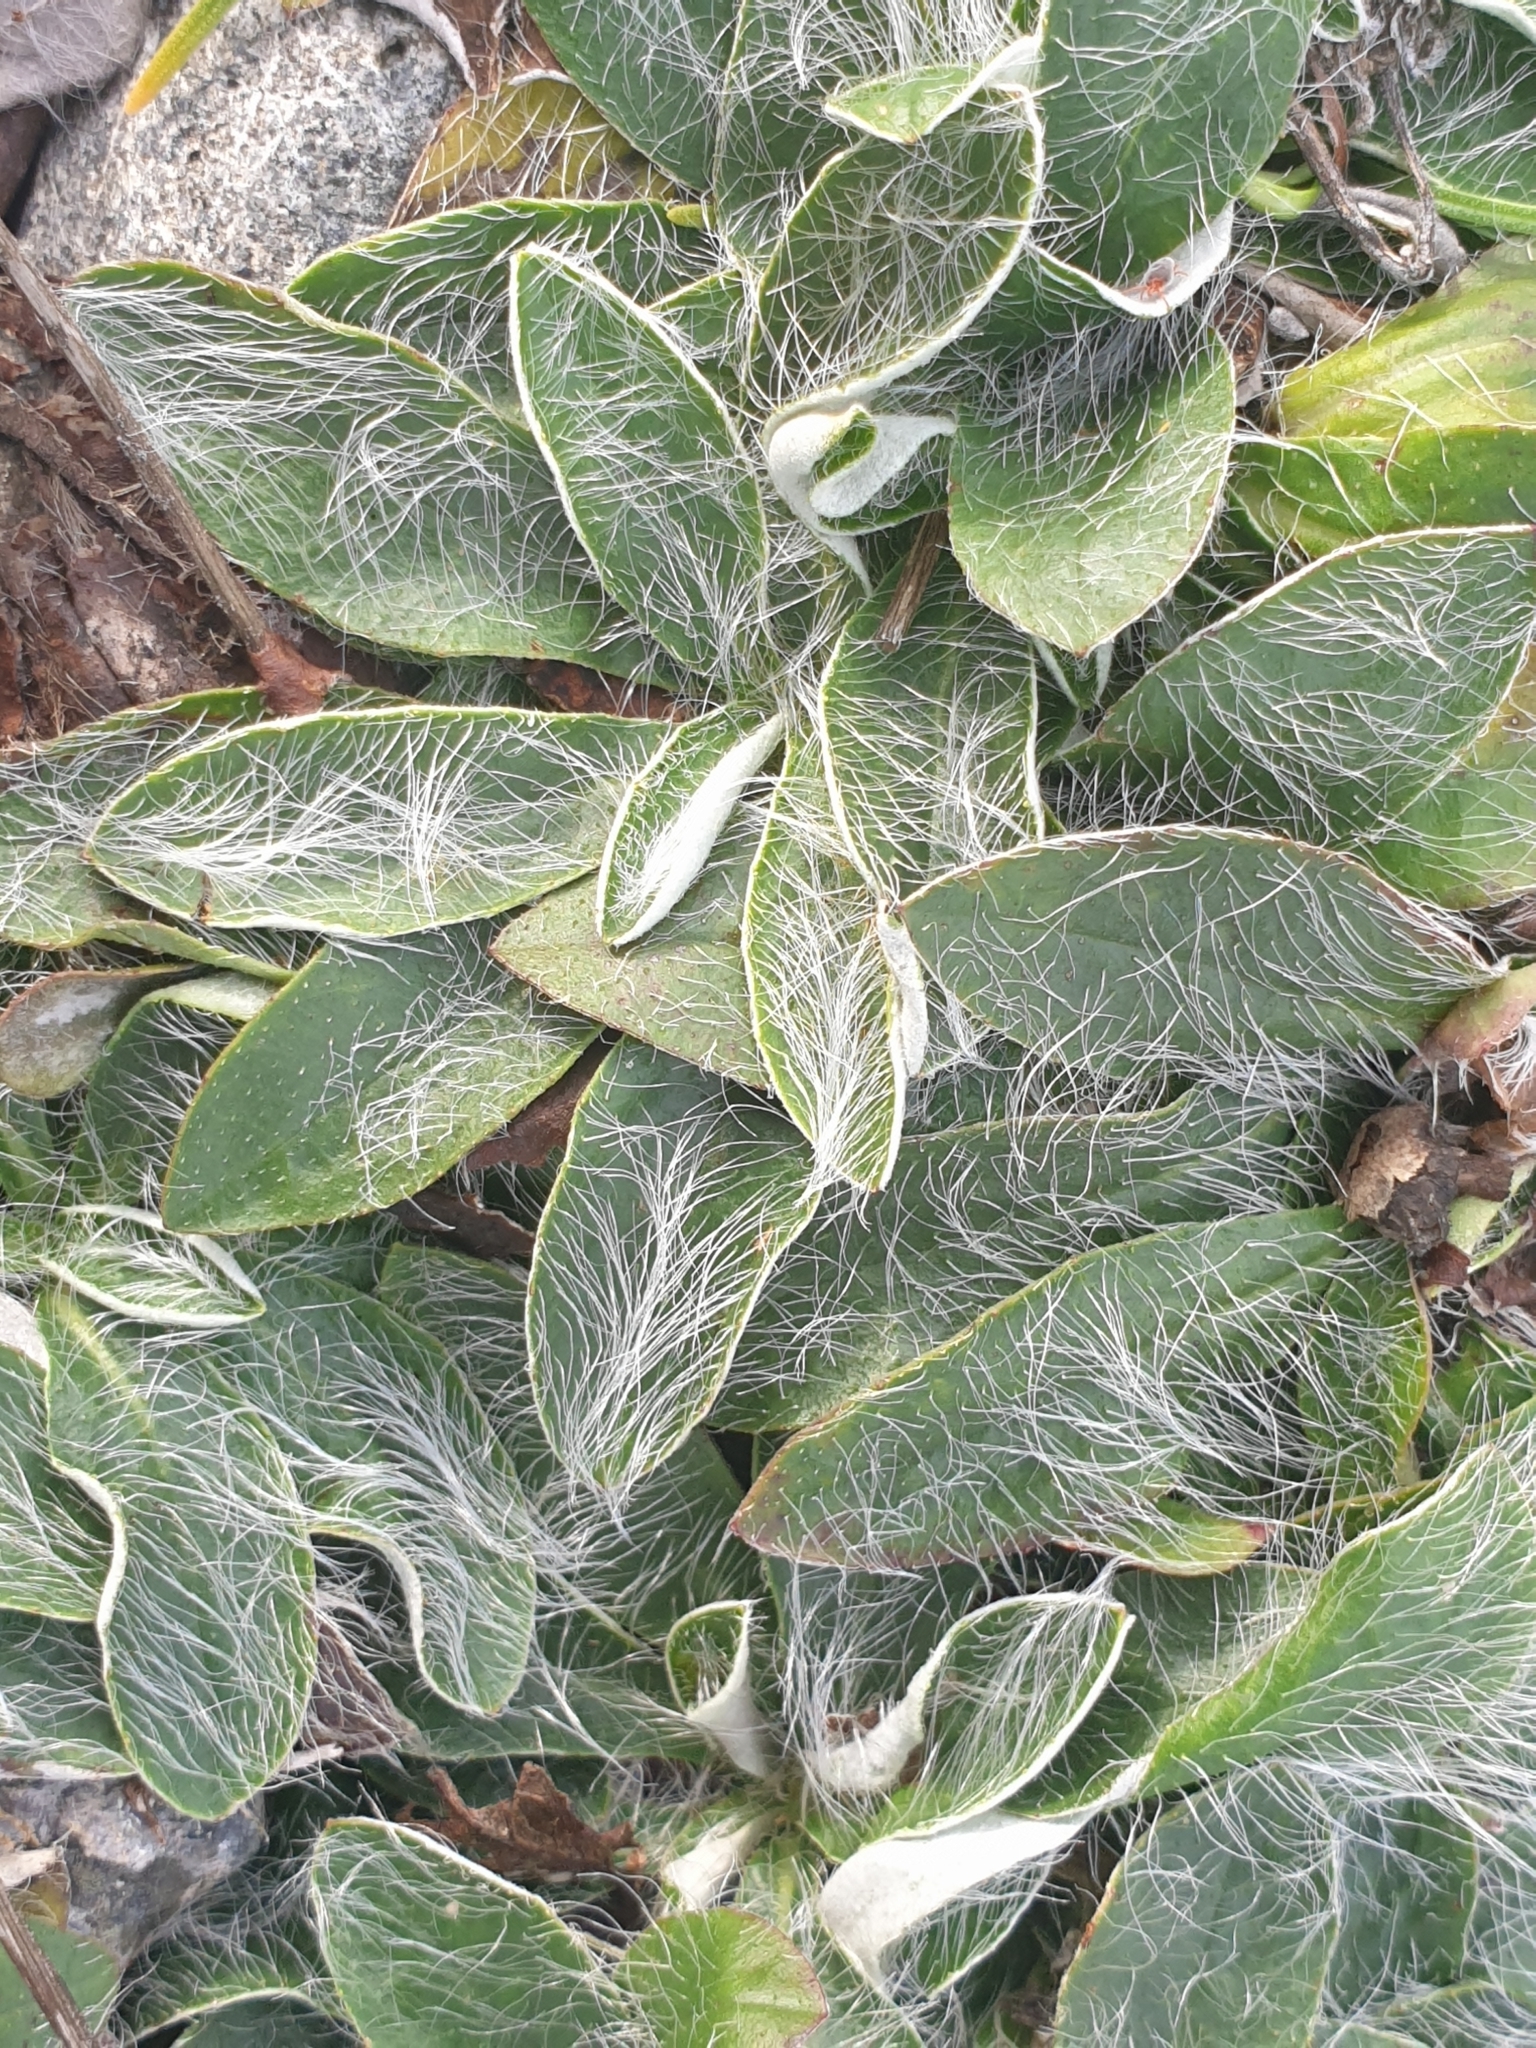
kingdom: Plantae
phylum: Tracheophyta
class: Magnoliopsida
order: Asterales
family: Asteraceae
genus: Pilosella
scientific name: Pilosella officinarum
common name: Mouse-ear hawkweed
